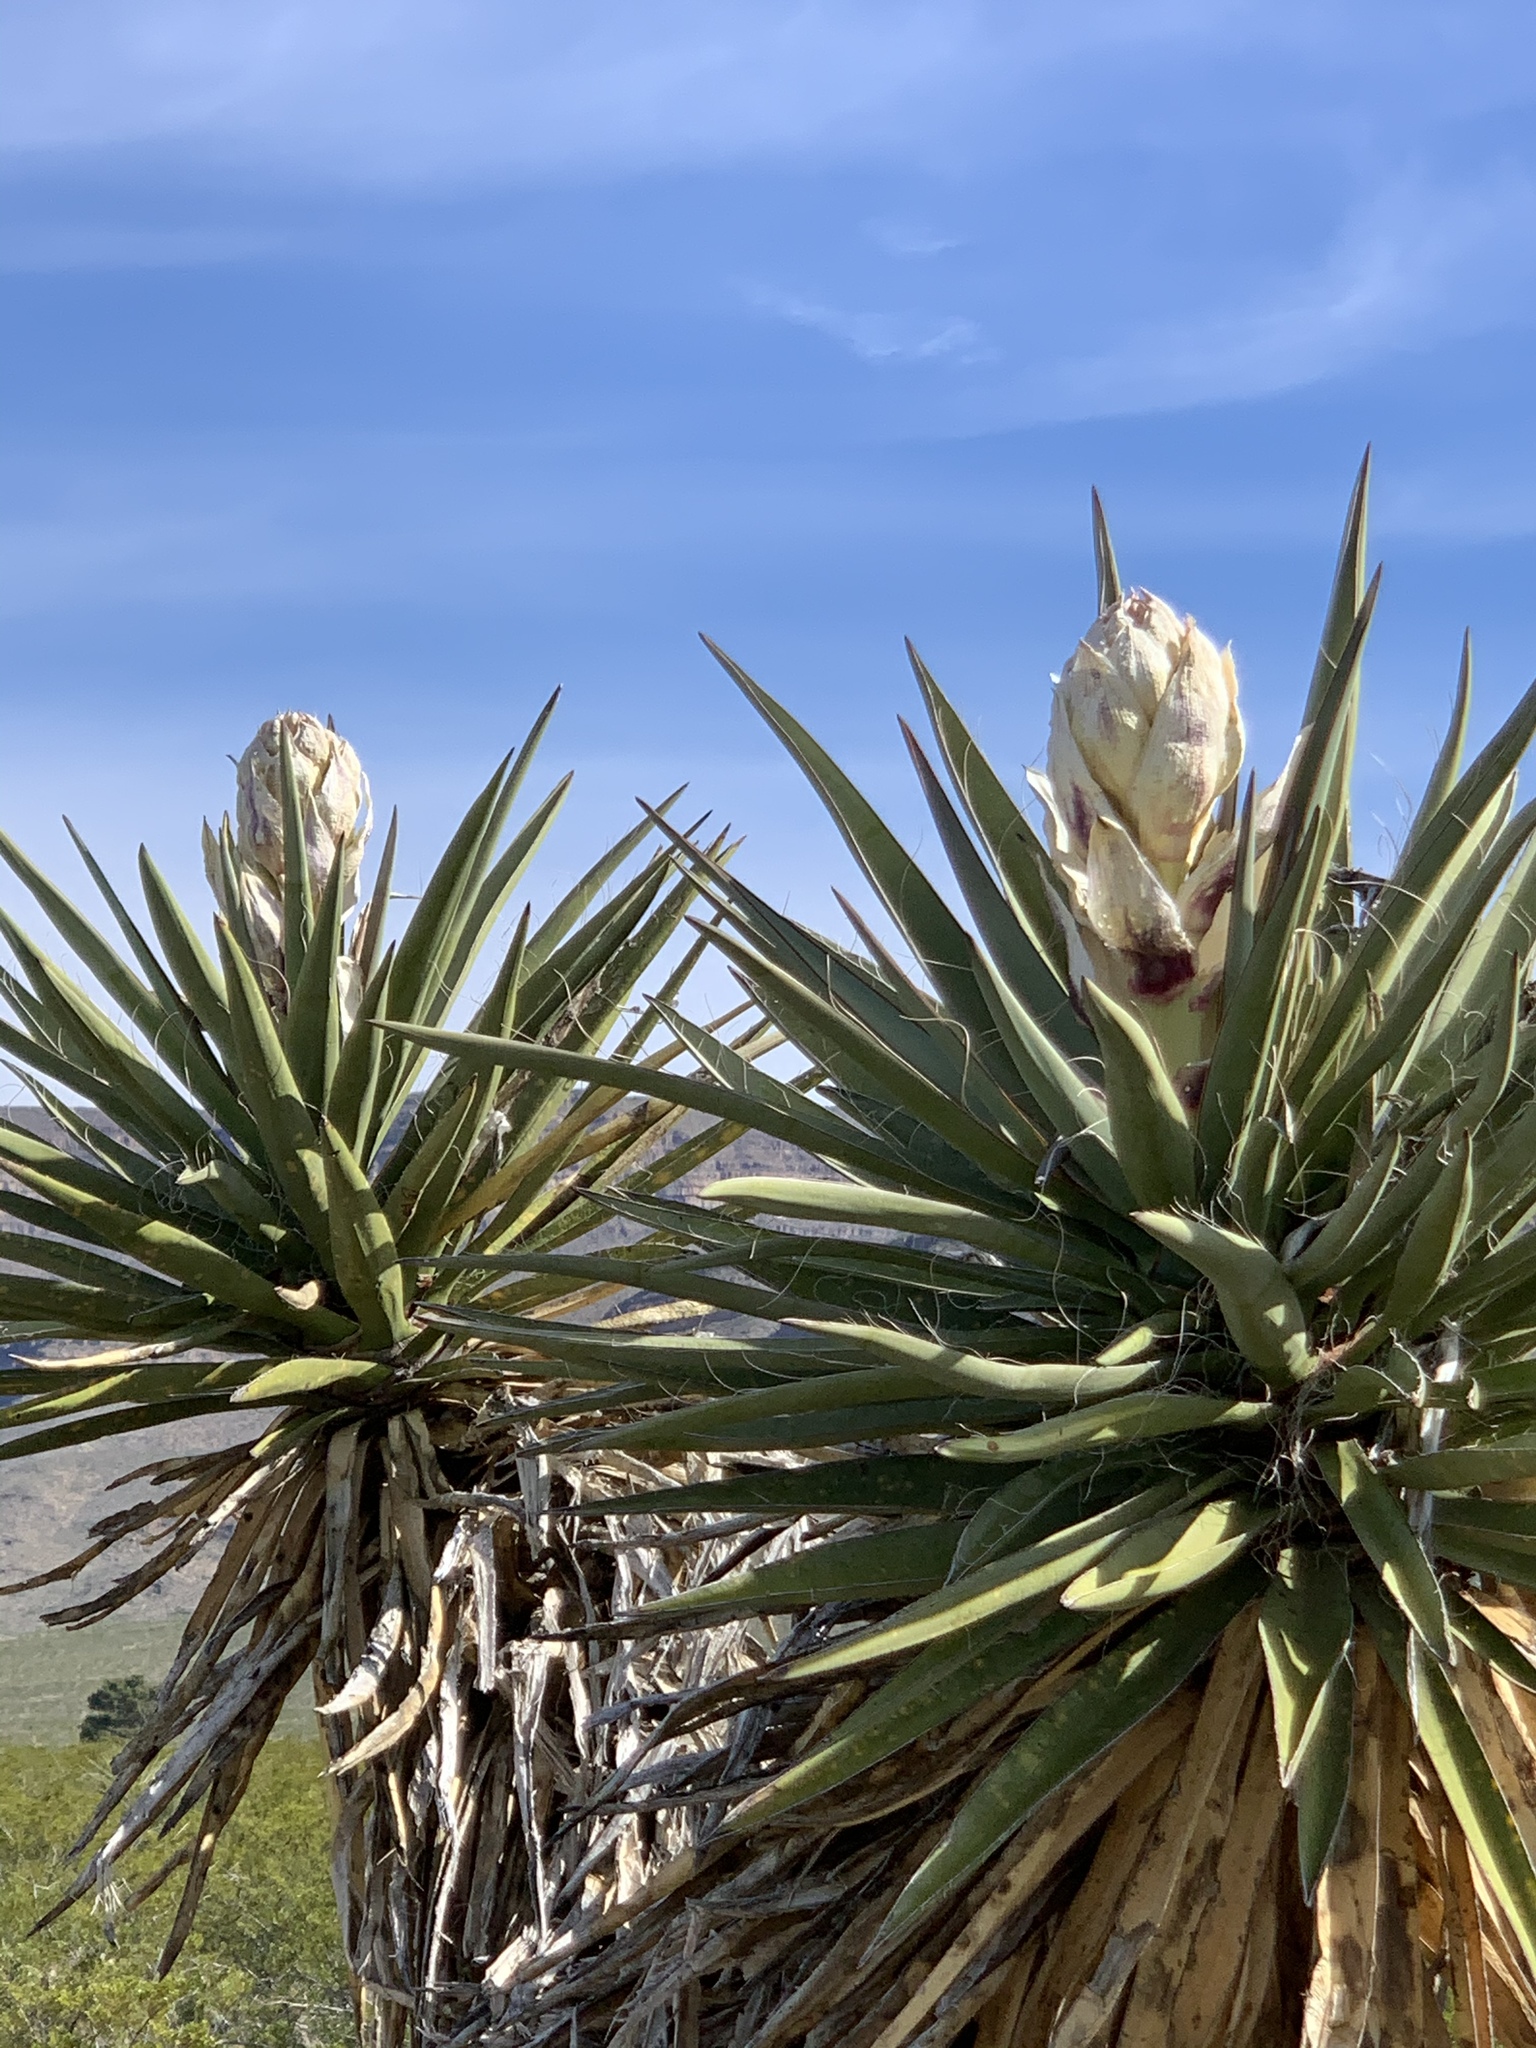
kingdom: Plantae
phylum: Tracheophyta
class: Liliopsida
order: Asparagales
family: Asparagaceae
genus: Yucca
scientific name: Yucca treculiana
